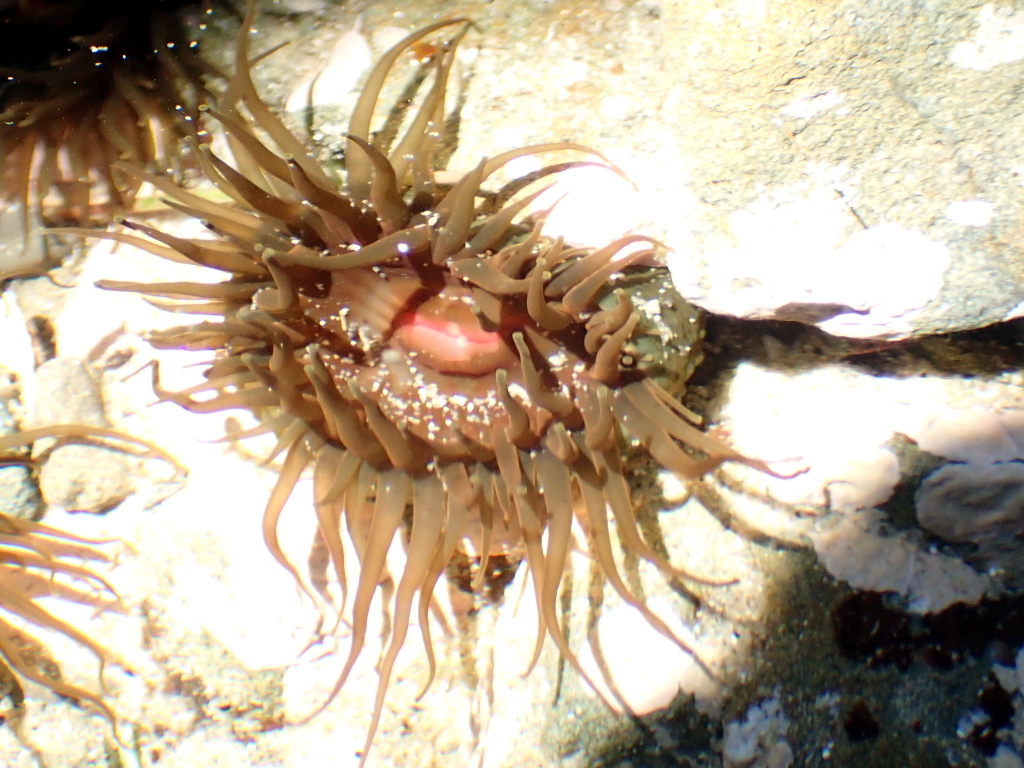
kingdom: Animalia
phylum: Cnidaria
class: Anthozoa
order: Actiniaria
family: Actiniidae
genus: Isactinia
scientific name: Isactinia olivacea
